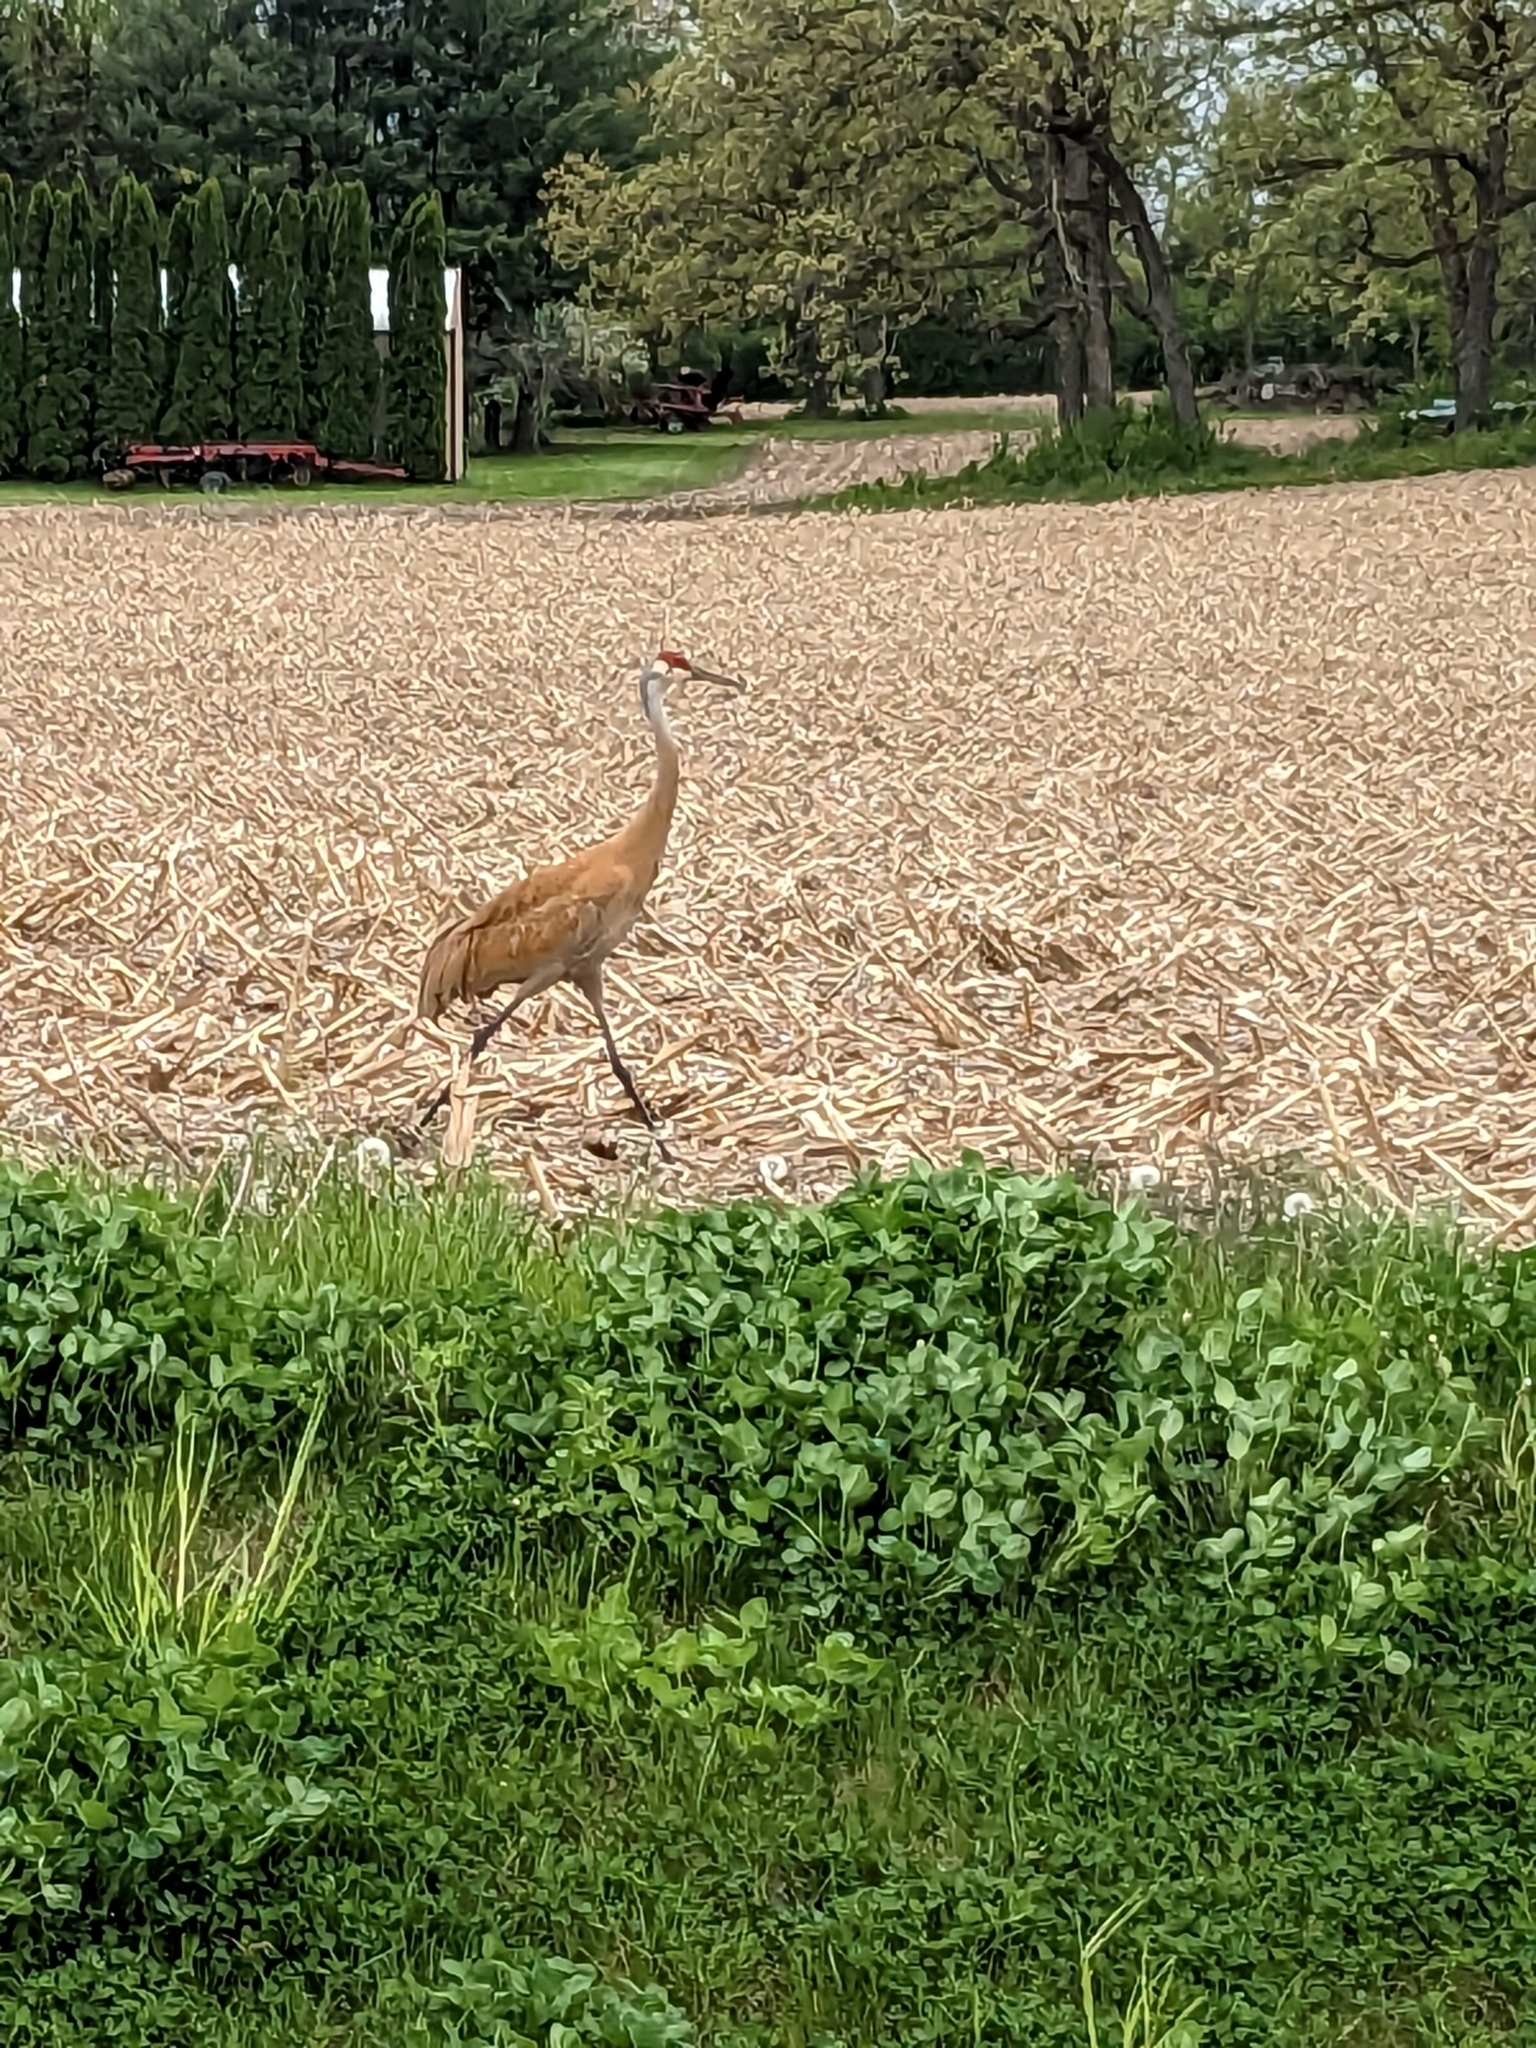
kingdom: Animalia
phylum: Chordata
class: Aves
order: Gruiformes
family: Gruidae
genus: Grus
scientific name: Grus canadensis
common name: Sandhill crane
